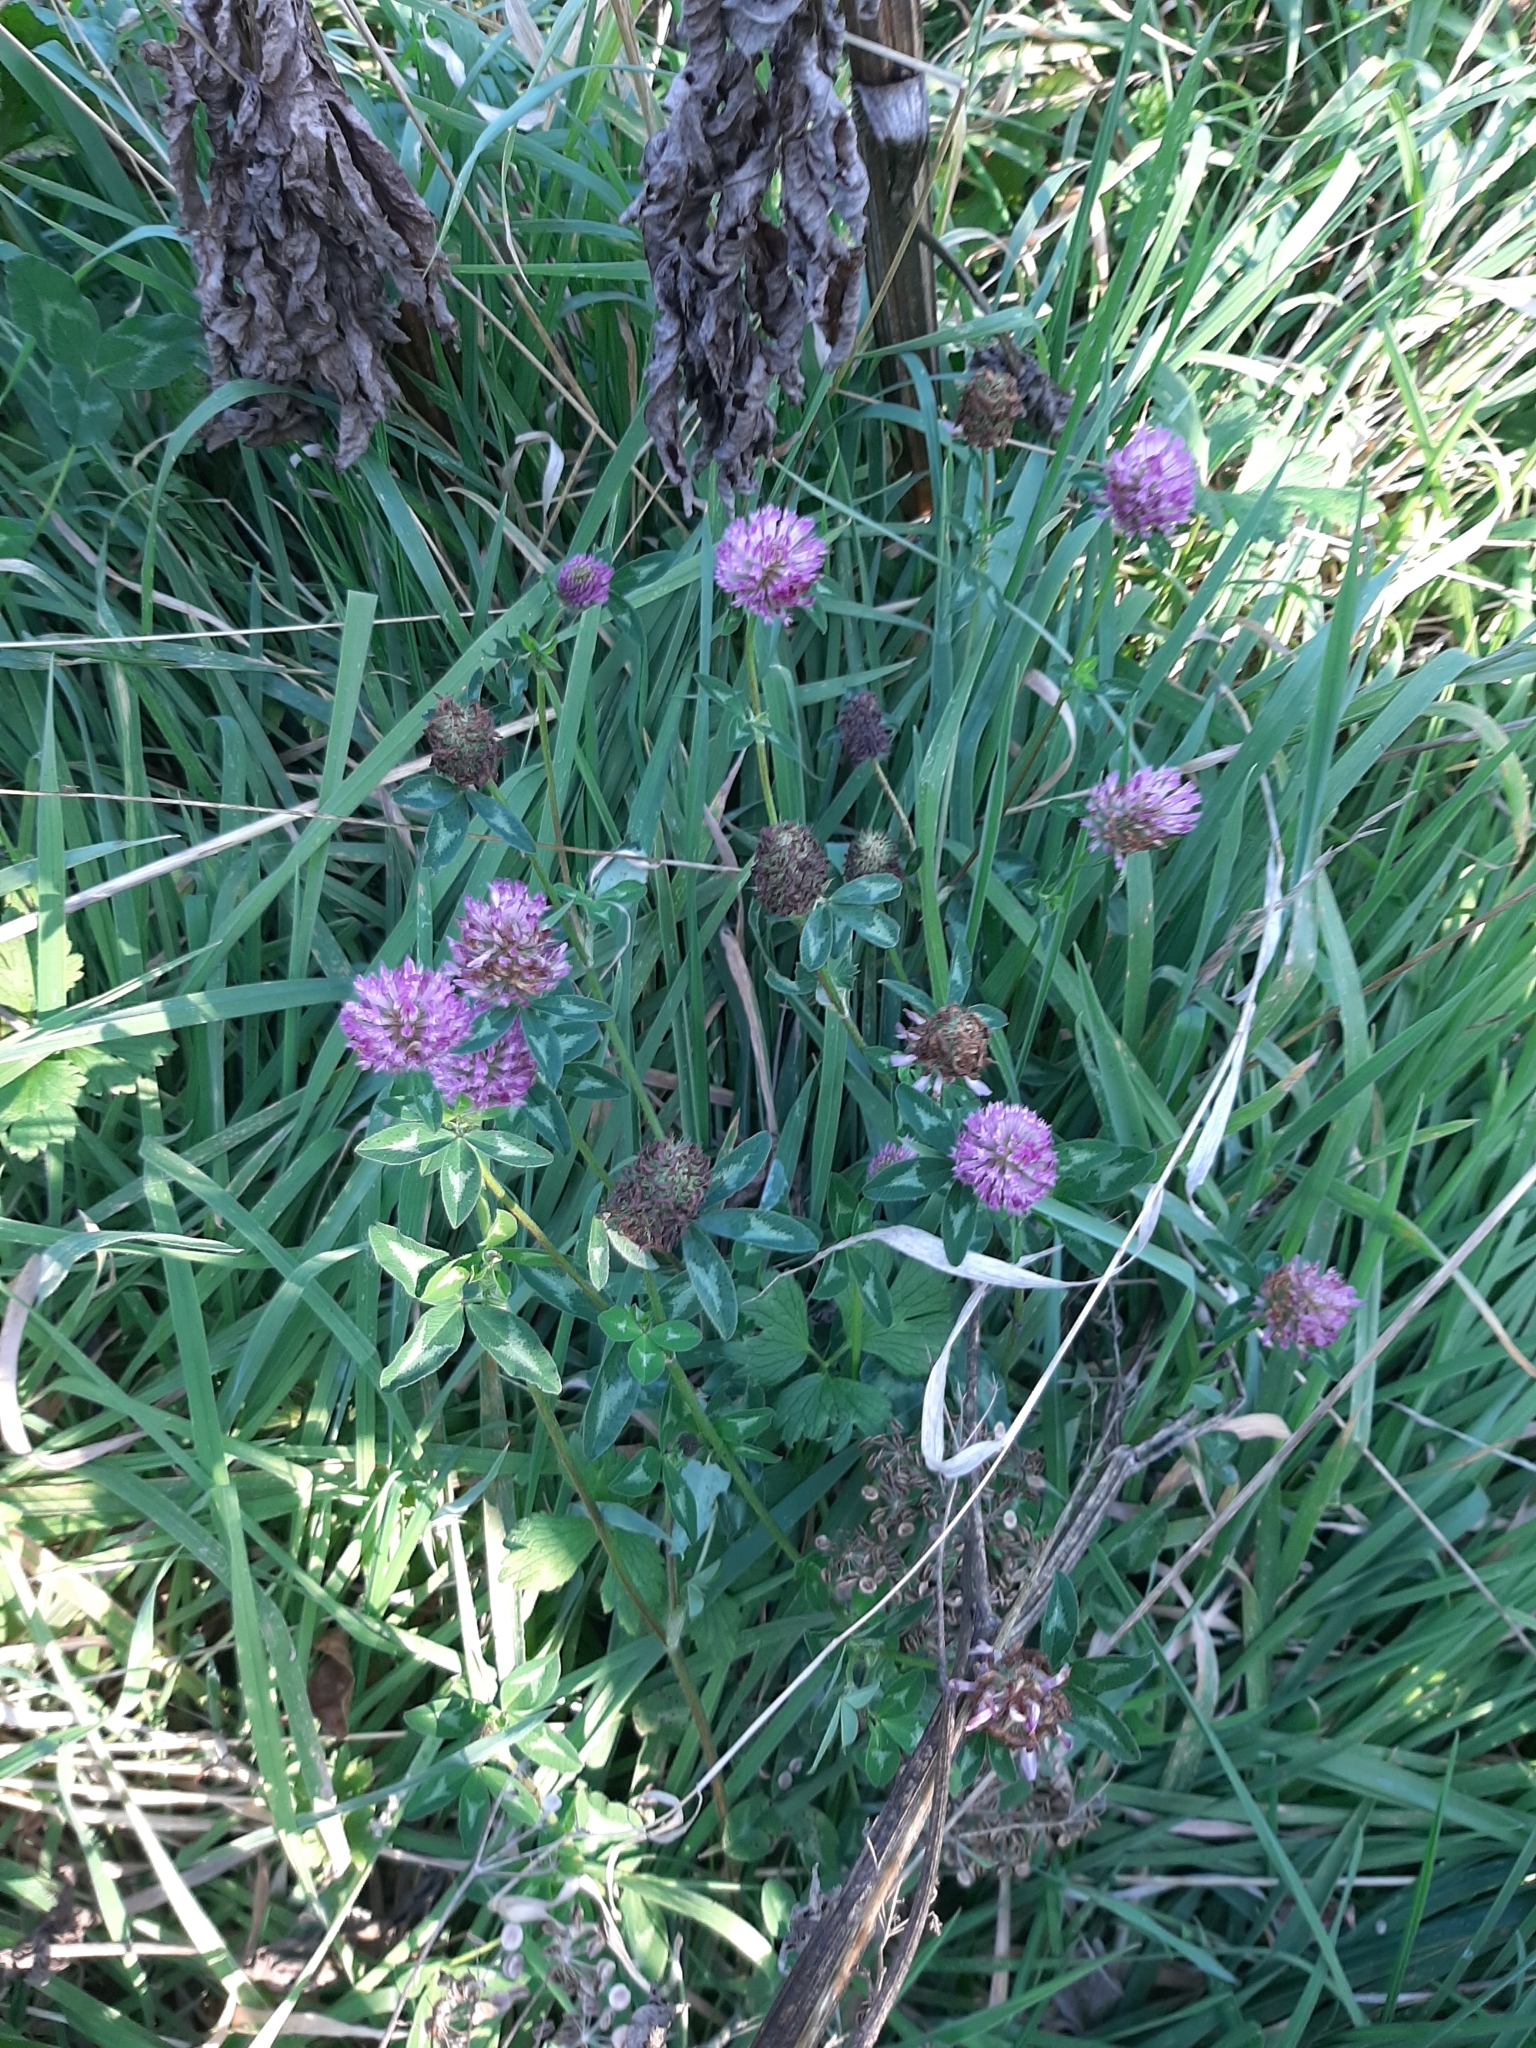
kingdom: Plantae
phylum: Tracheophyta
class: Magnoliopsida
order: Fabales
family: Fabaceae
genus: Trifolium
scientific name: Trifolium pratense
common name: Red clover
